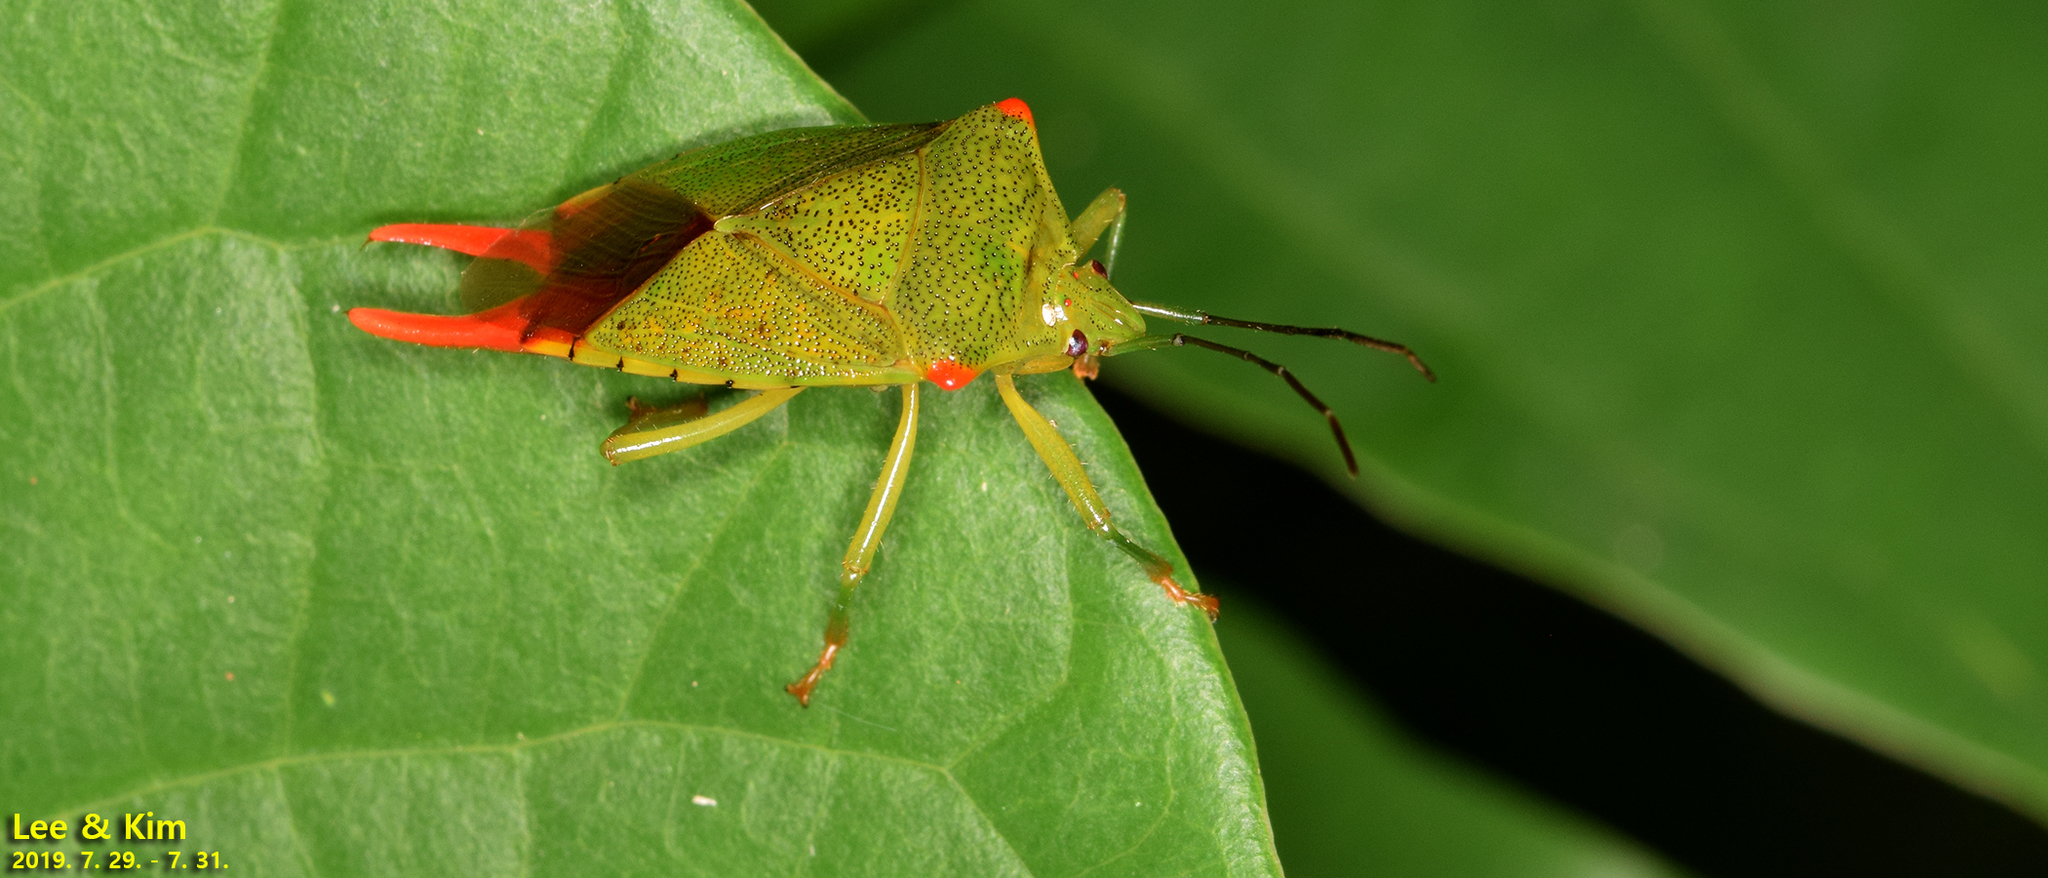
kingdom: Animalia
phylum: Arthropoda
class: Insecta
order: Hemiptera
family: Acanthosomatidae
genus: Acanthosoma
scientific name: Acanthosoma labiduroides
